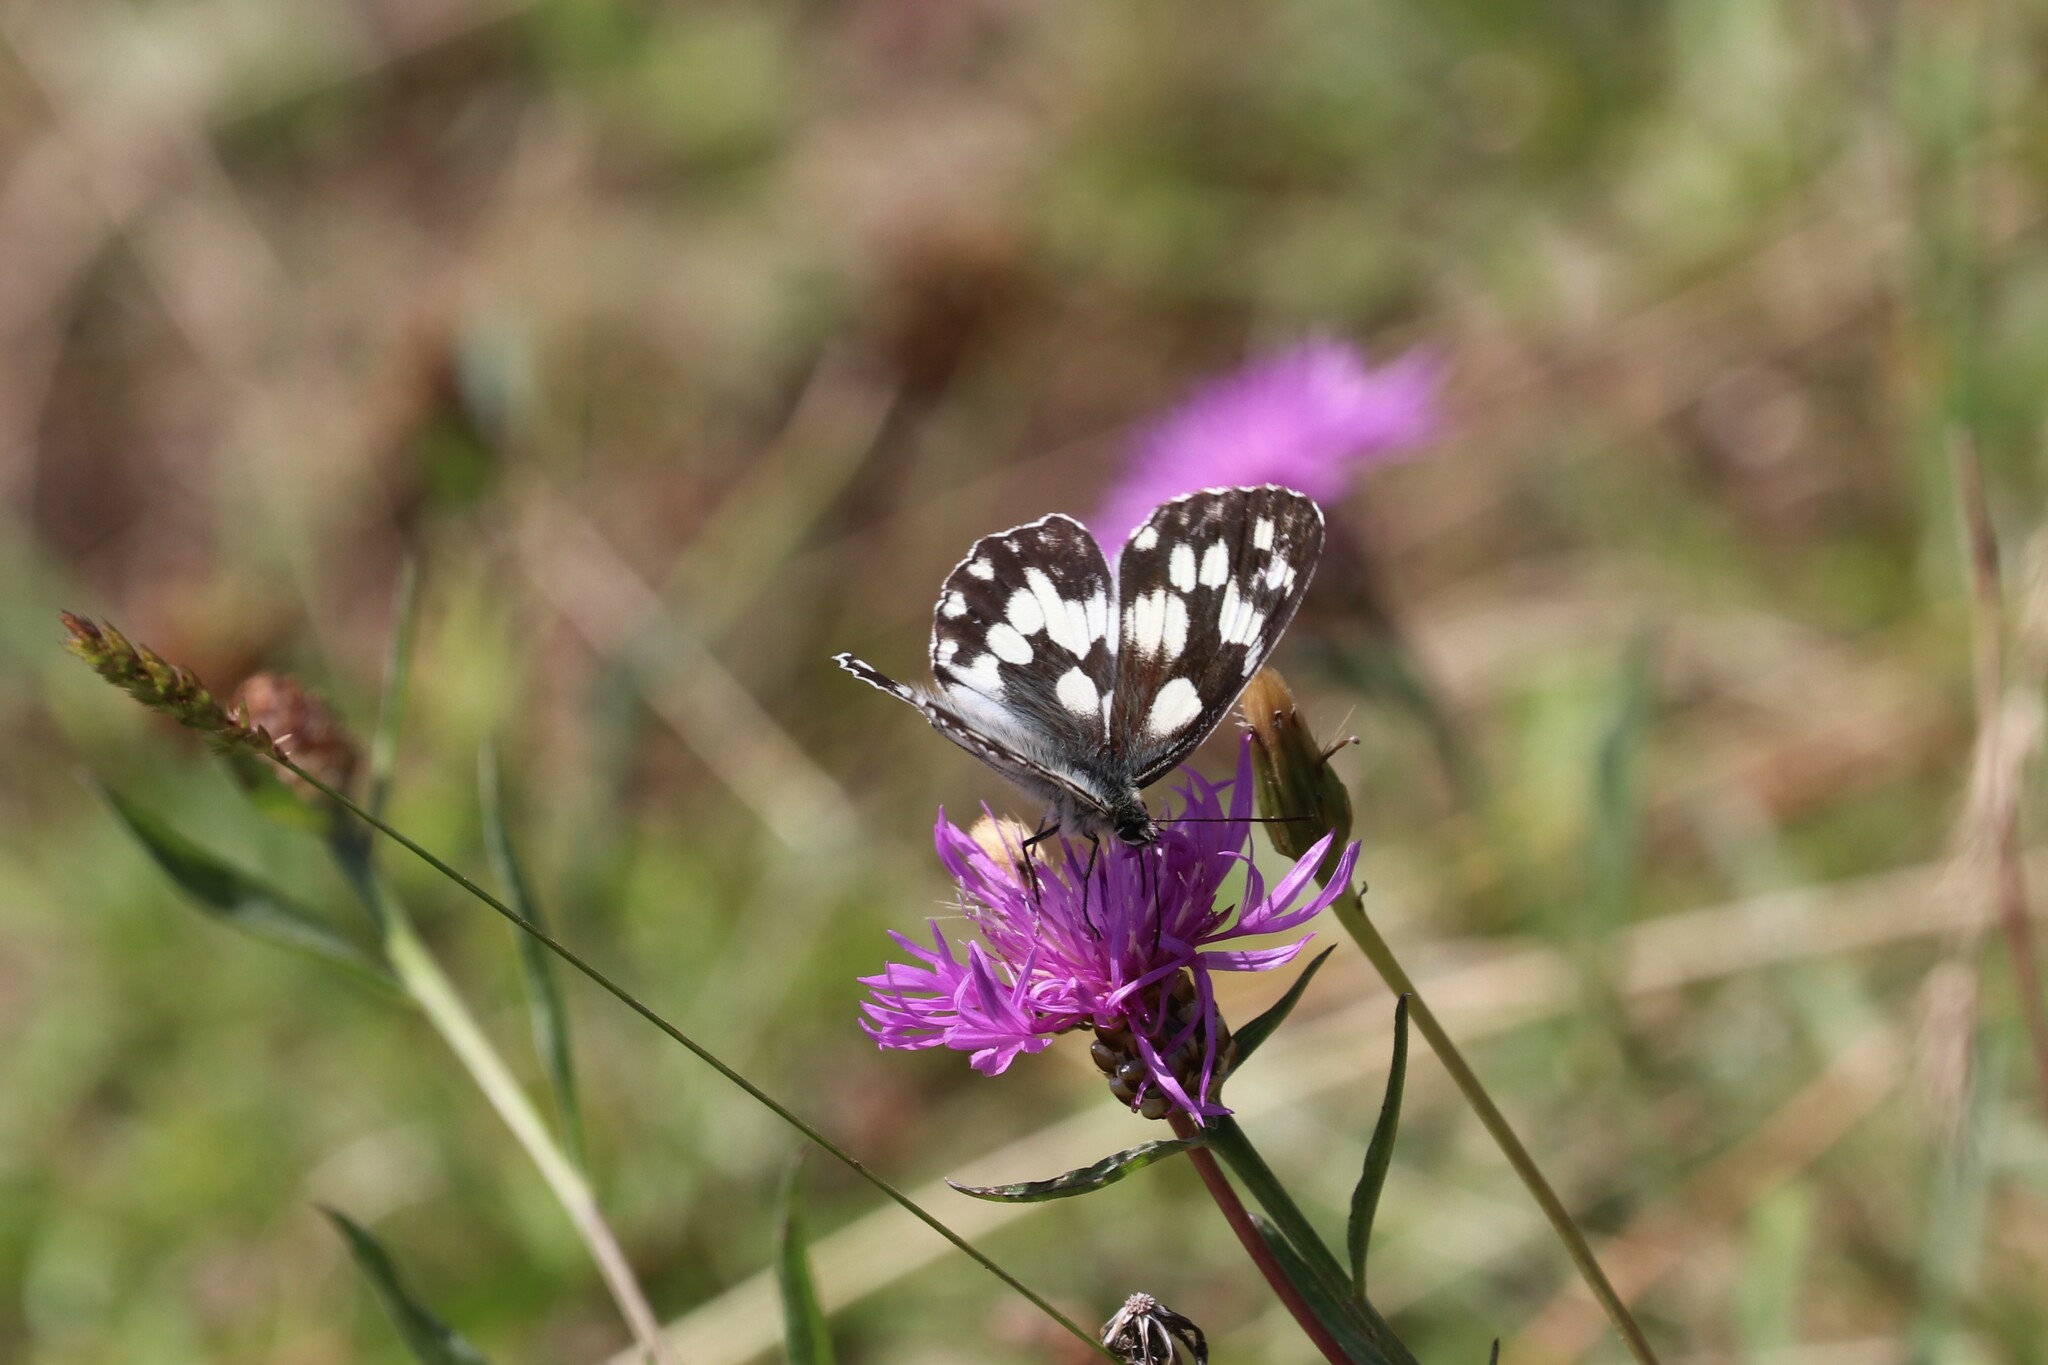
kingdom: Animalia
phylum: Arthropoda
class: Insecta
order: Lepidoptera
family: Nymphalidae
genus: Melanargia
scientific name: Melanargia galathea
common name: Marbled white
